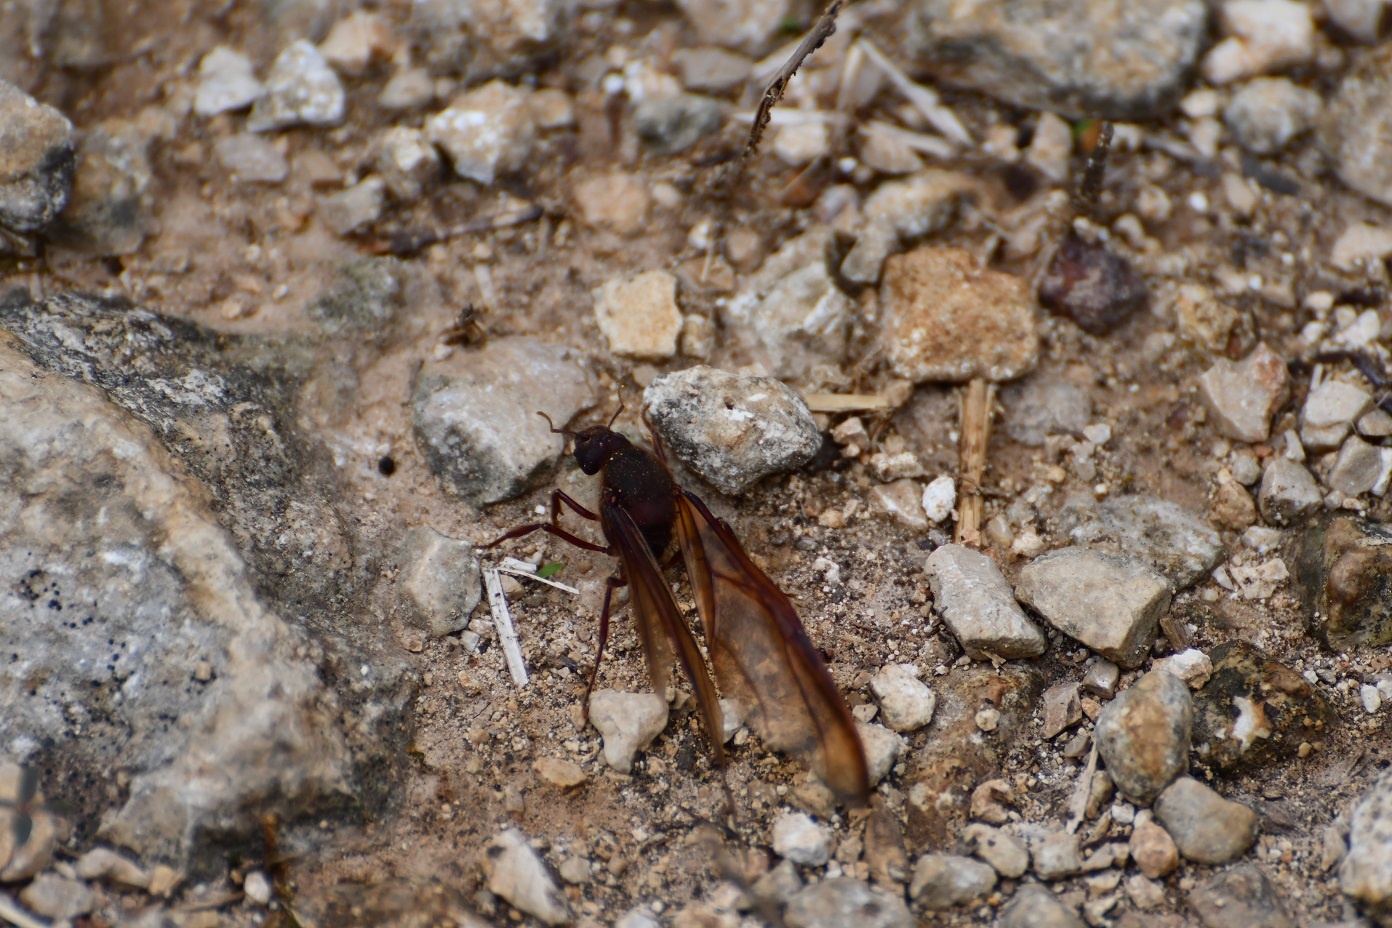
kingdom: Animalia
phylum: Arthropoda
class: Insecta
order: Hymenoptera
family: Formicidae
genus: Atta
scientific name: Atta mexicana
